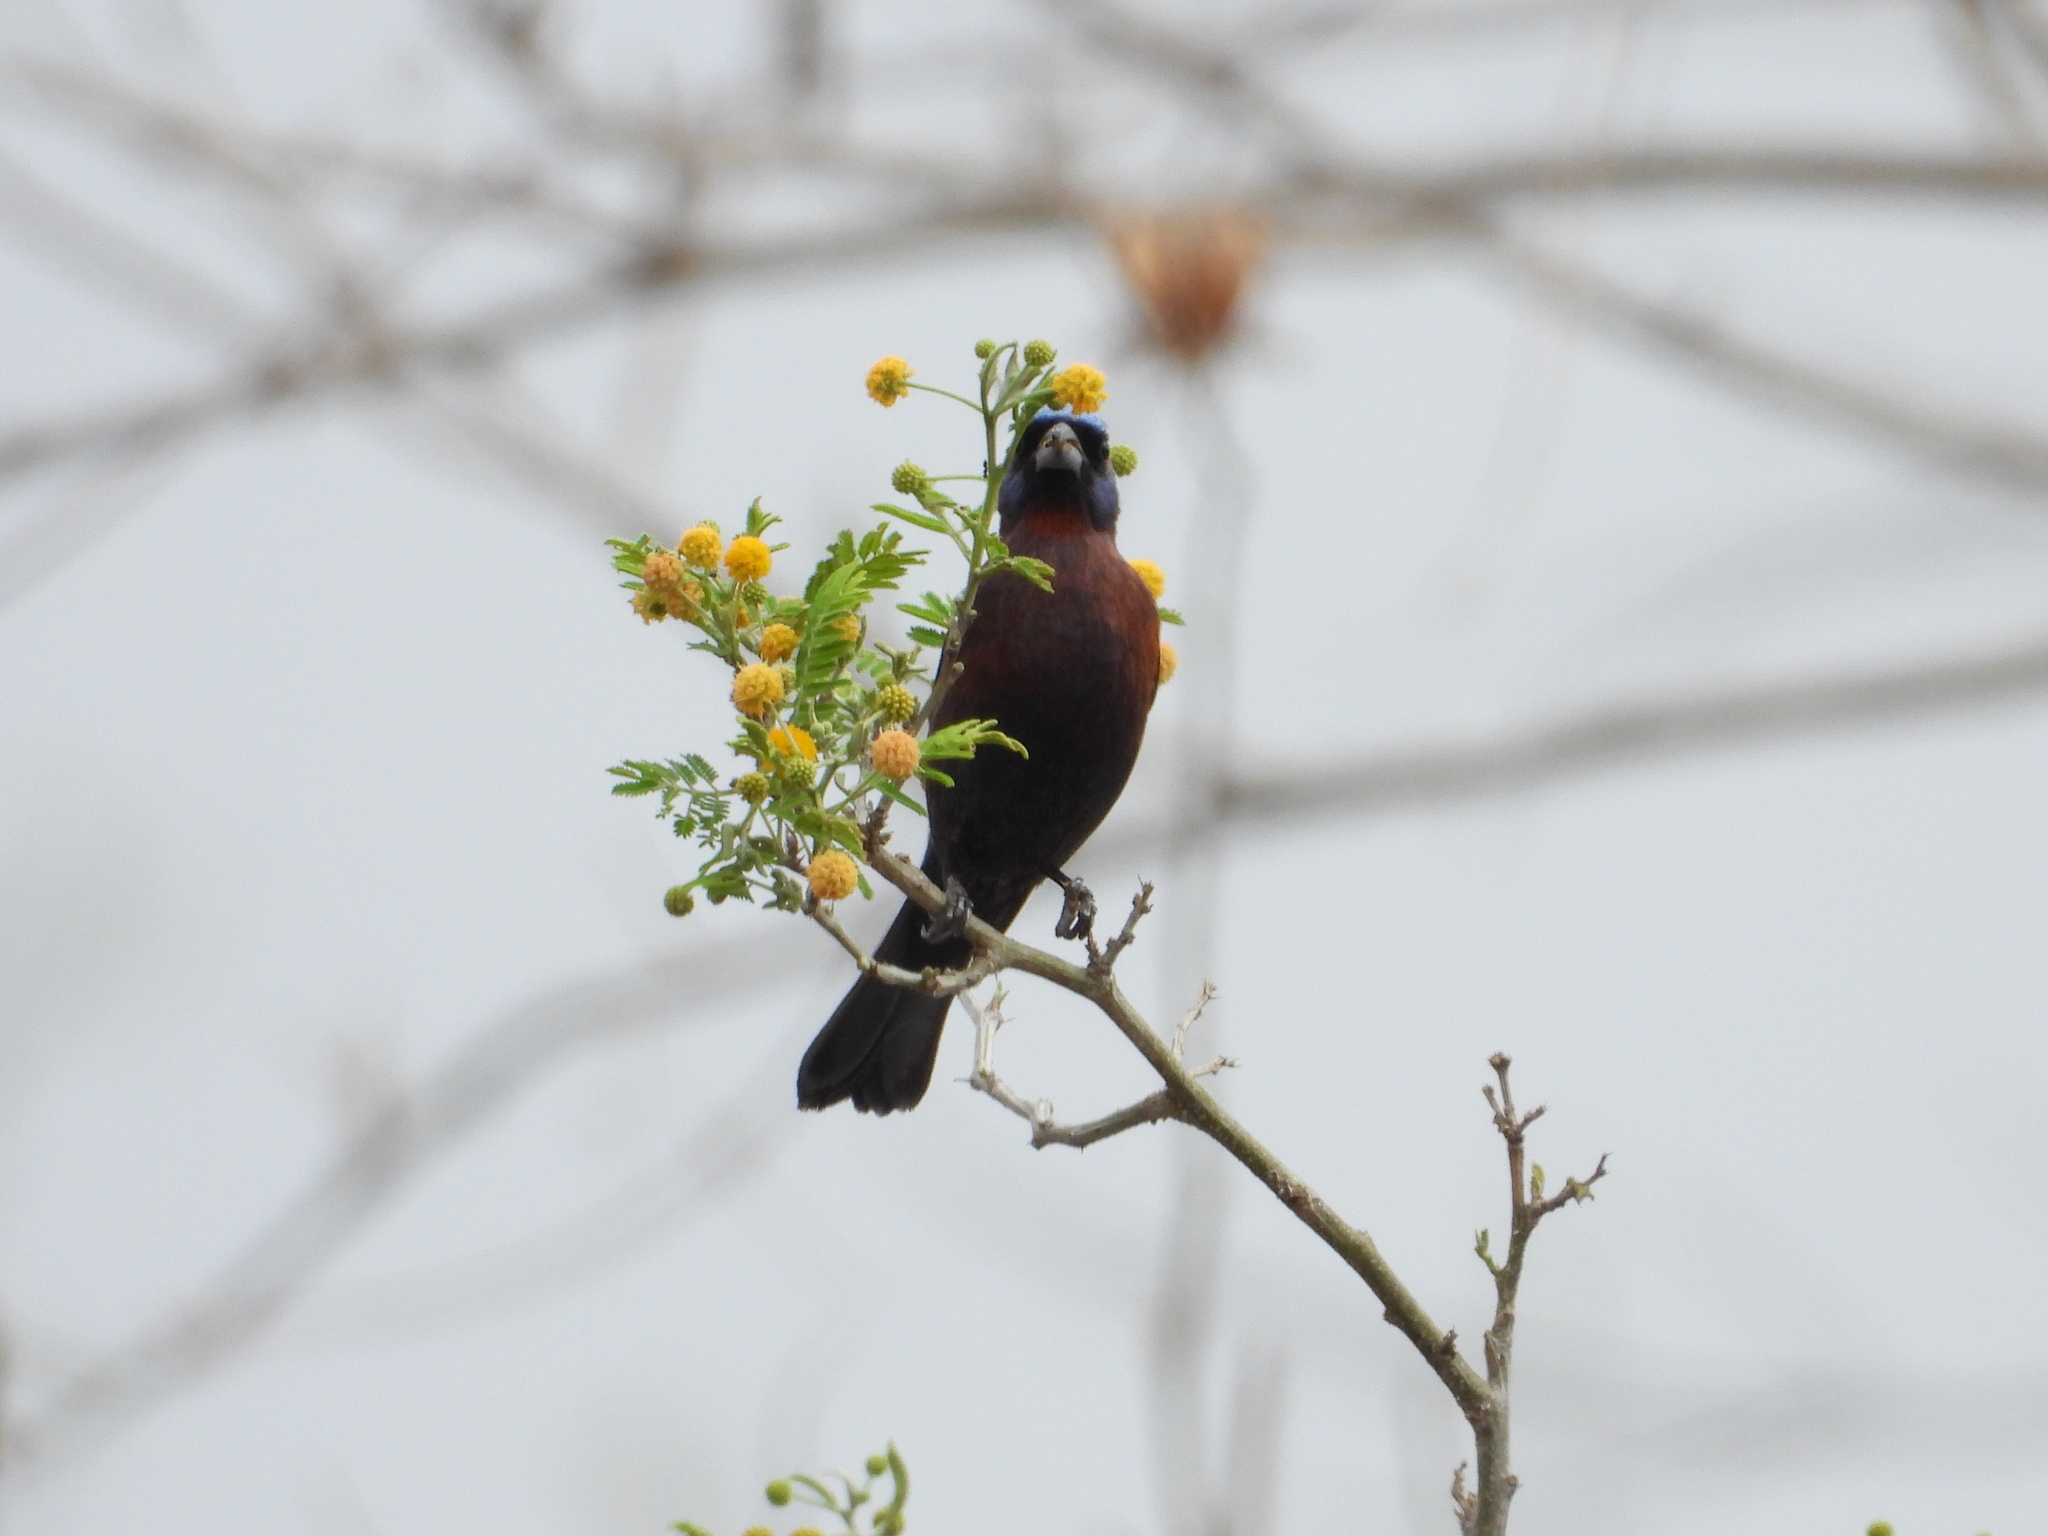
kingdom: Animalia
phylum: Chordata
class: Aves
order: Passeriformes
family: Cardinalidae
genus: Passerina
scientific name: Passerina versicolor
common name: Varied bunting
